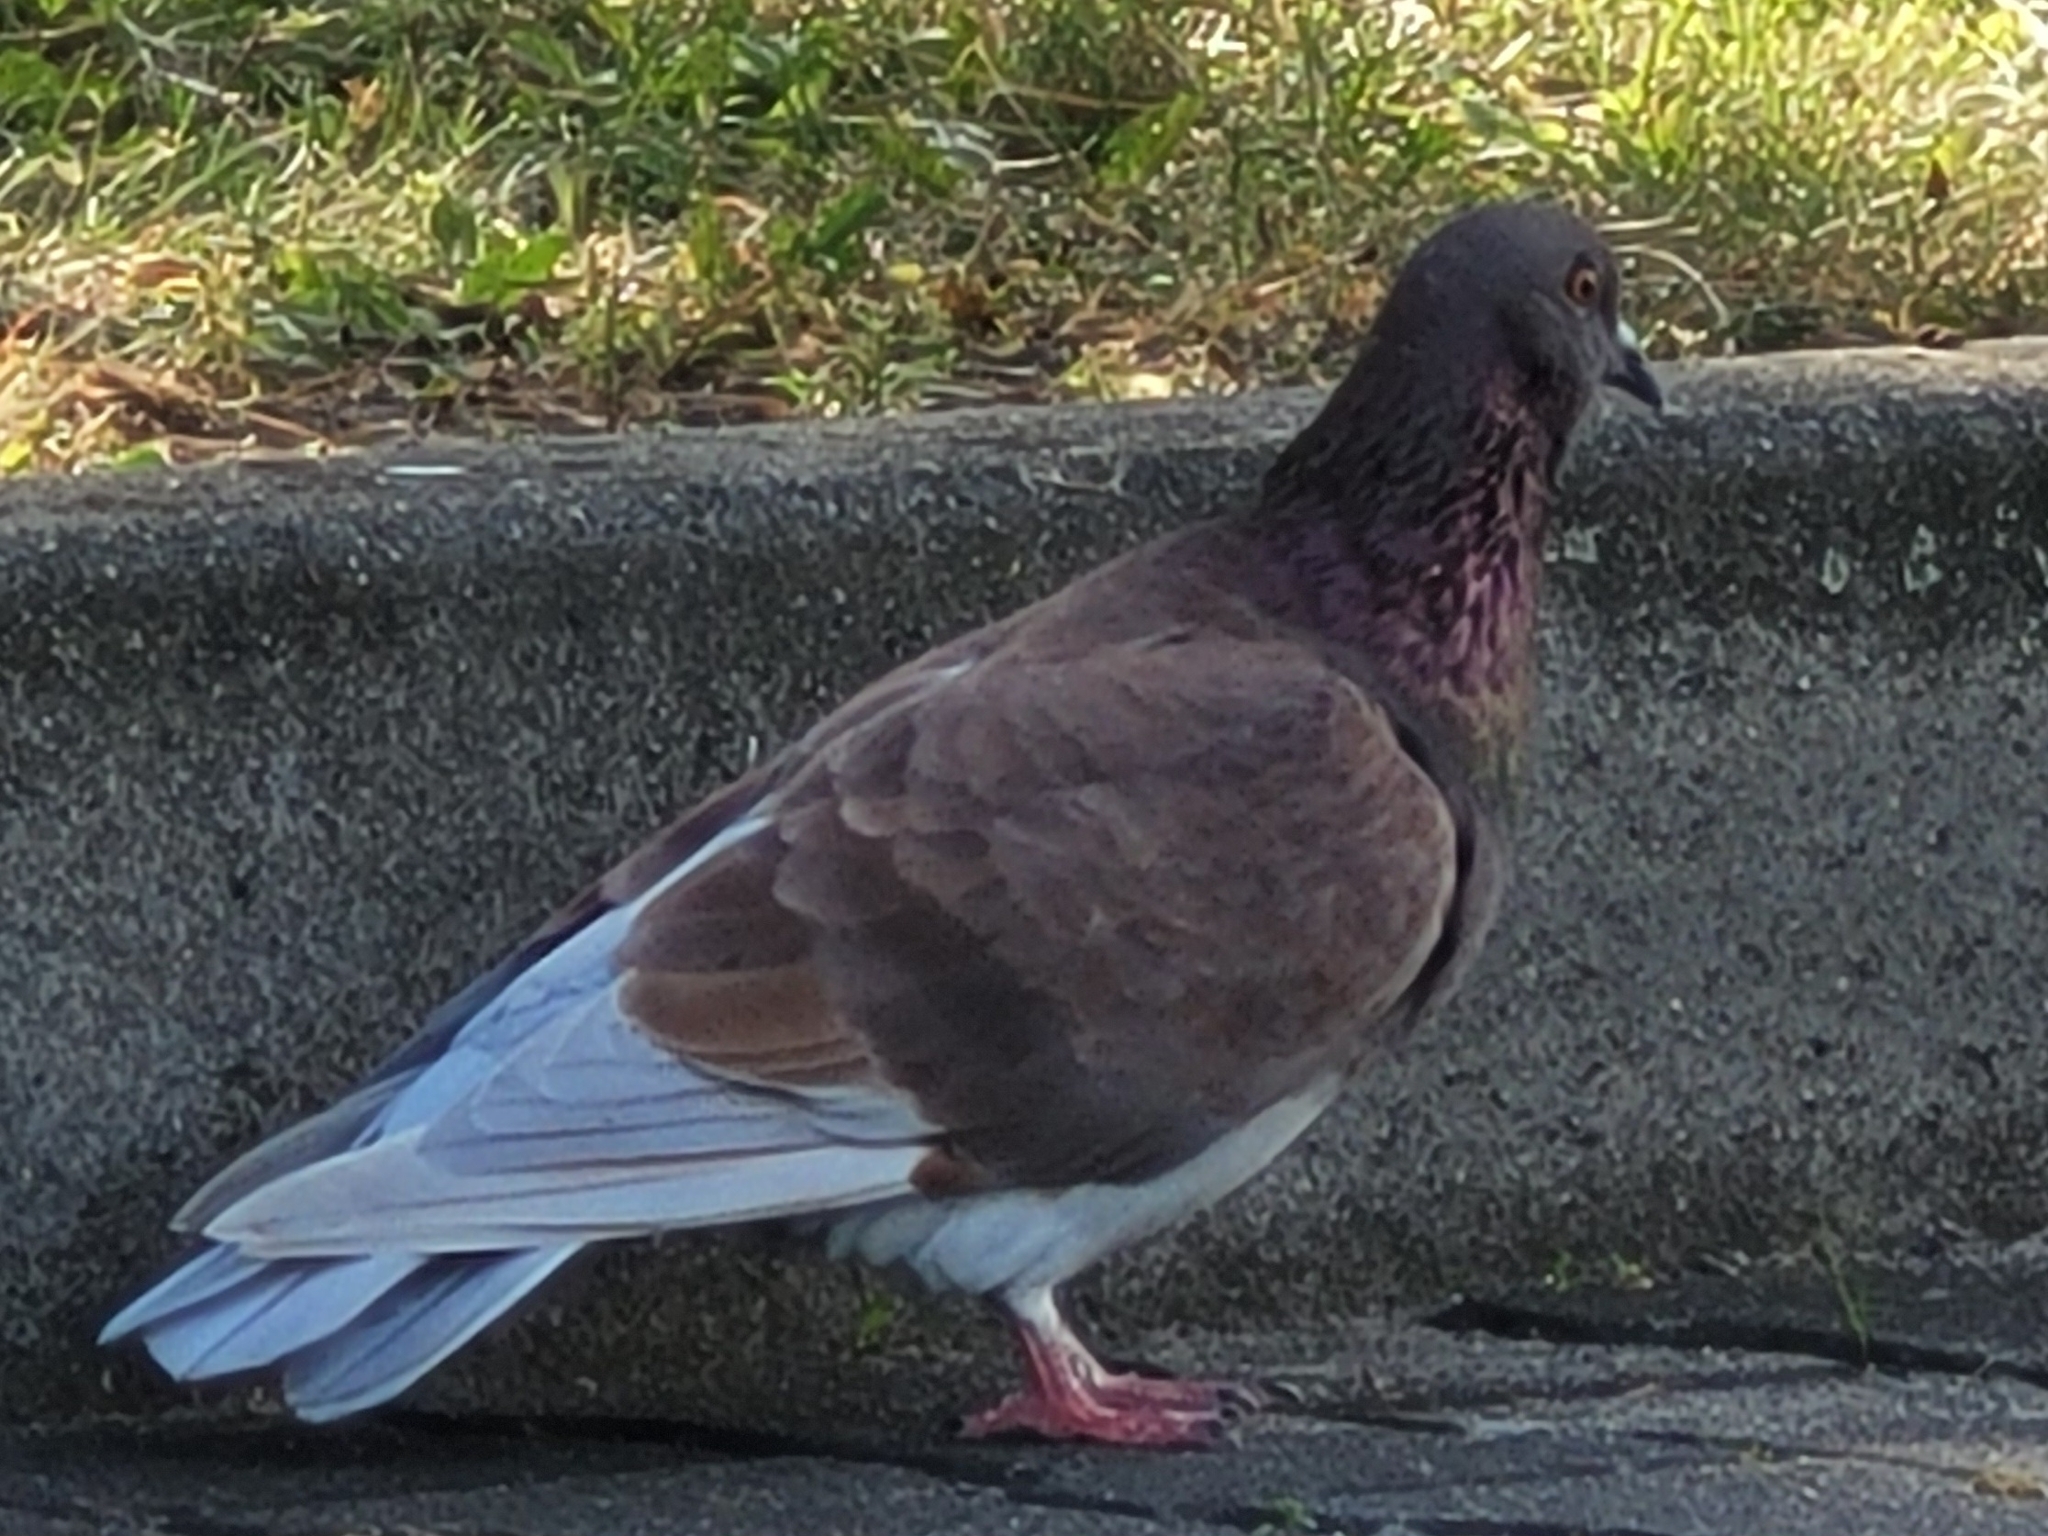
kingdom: Animalia
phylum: Chordata
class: Aves
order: Columbiformes
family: Columbidae
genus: Columba
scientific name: Columba livia
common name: Rock pigeon
